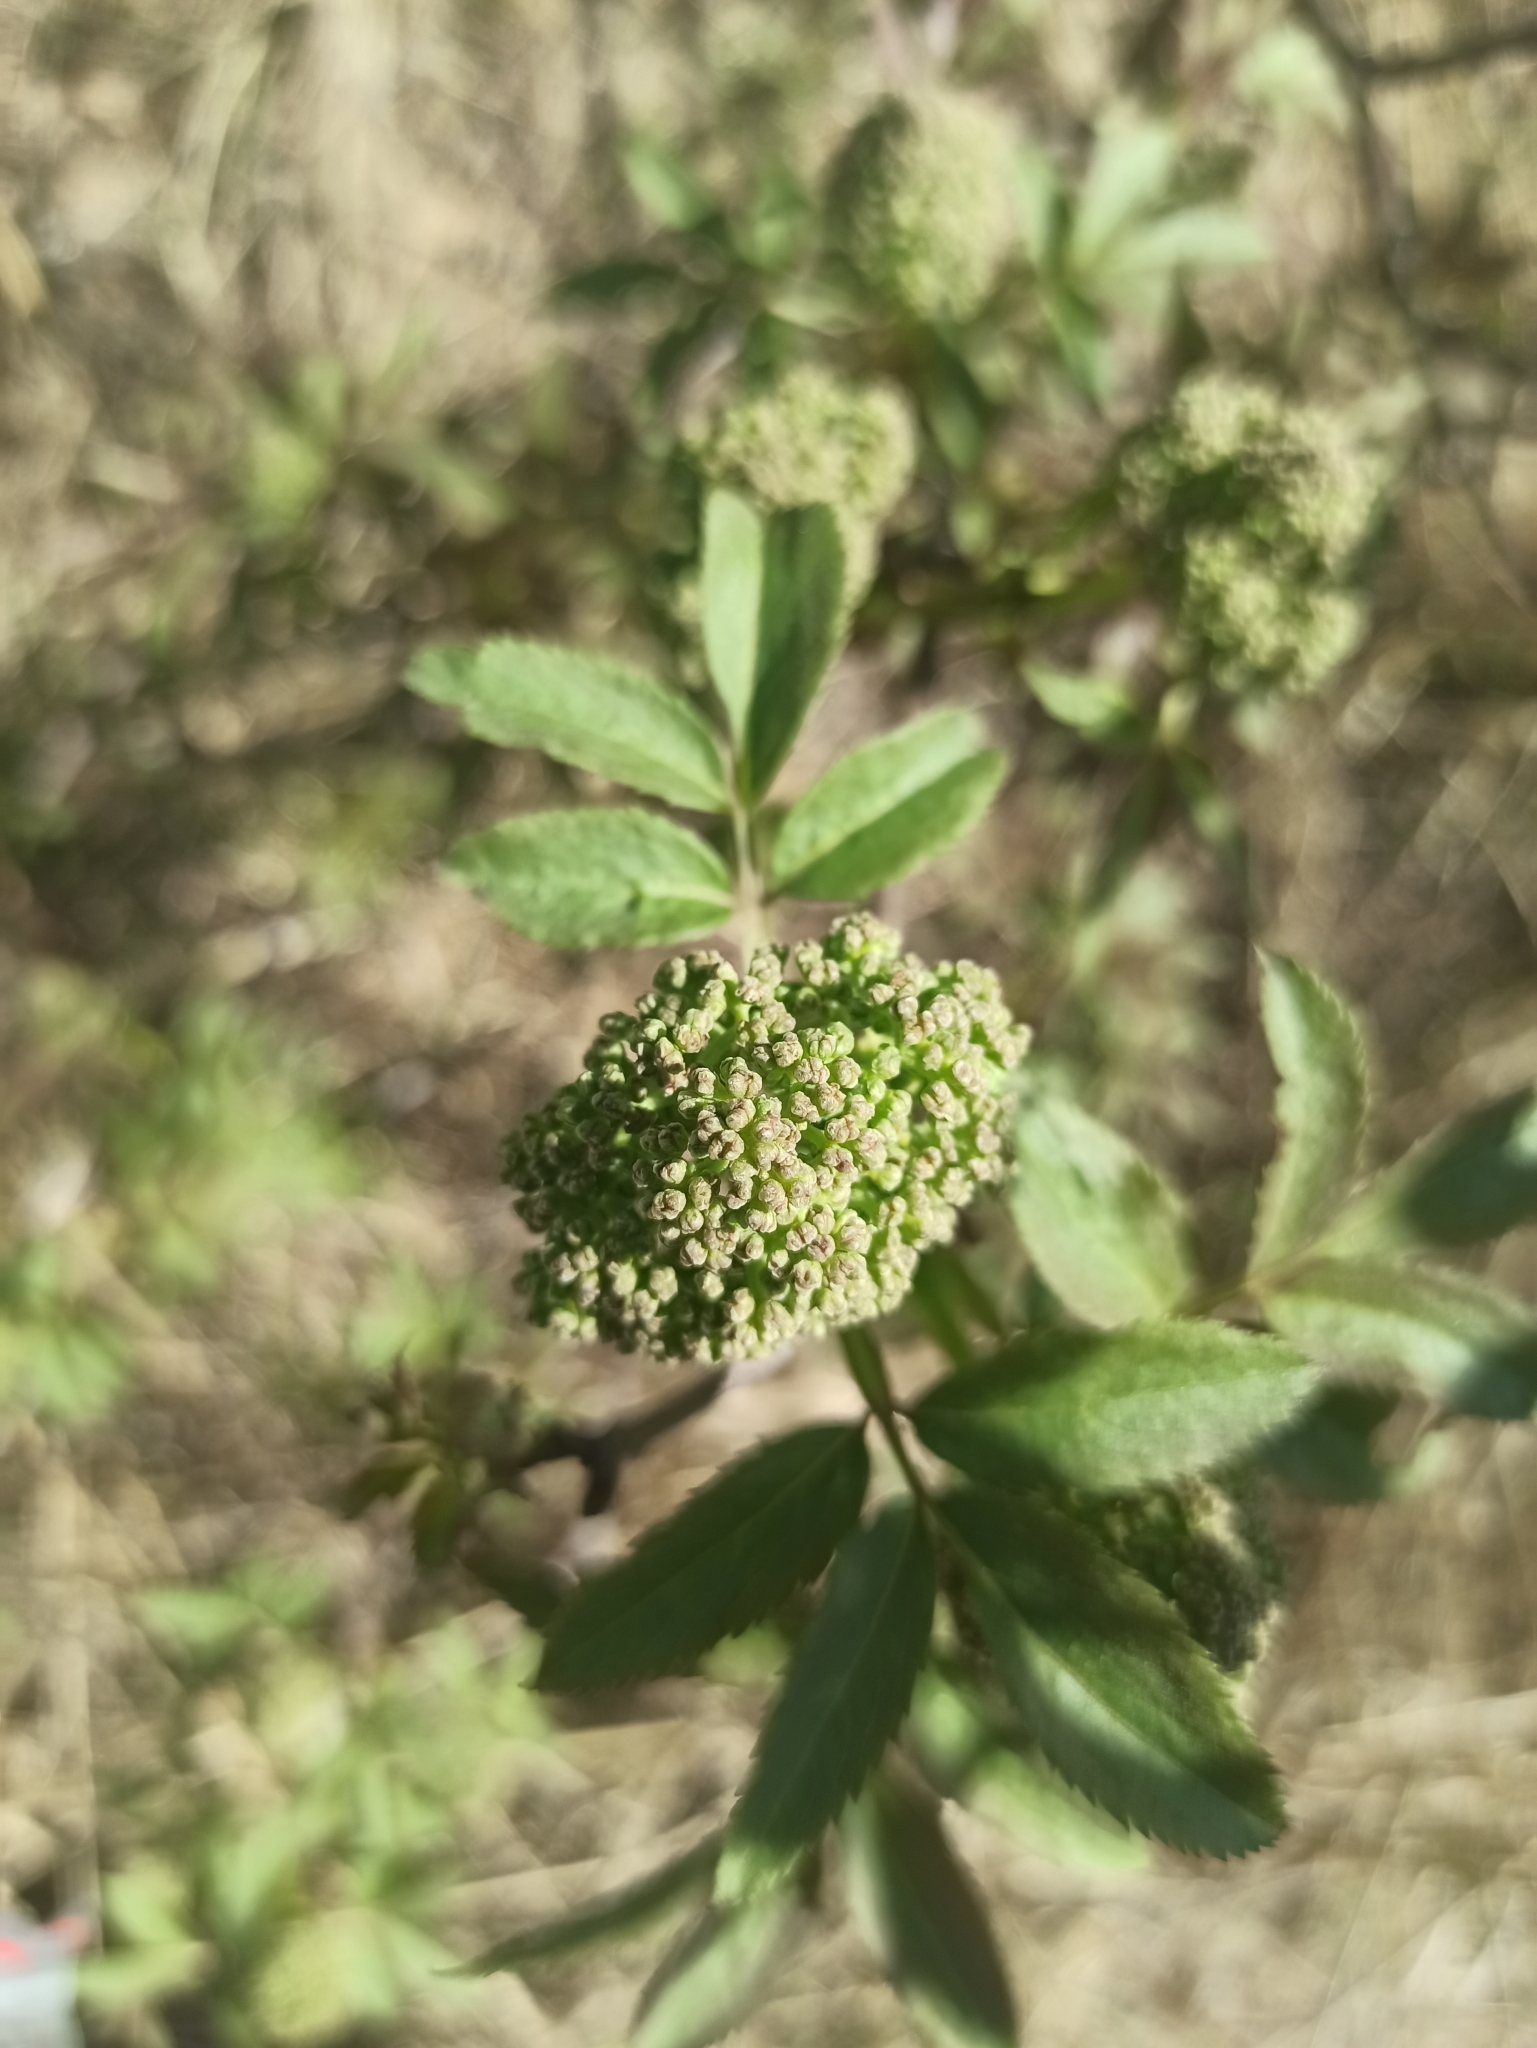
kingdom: Plantae
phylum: Tracheophyta
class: Magnoliopsida
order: Dipsacales
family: Viburnaceae
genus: Sambucus
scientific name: Sambucus racemosa
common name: Red-berried elder
